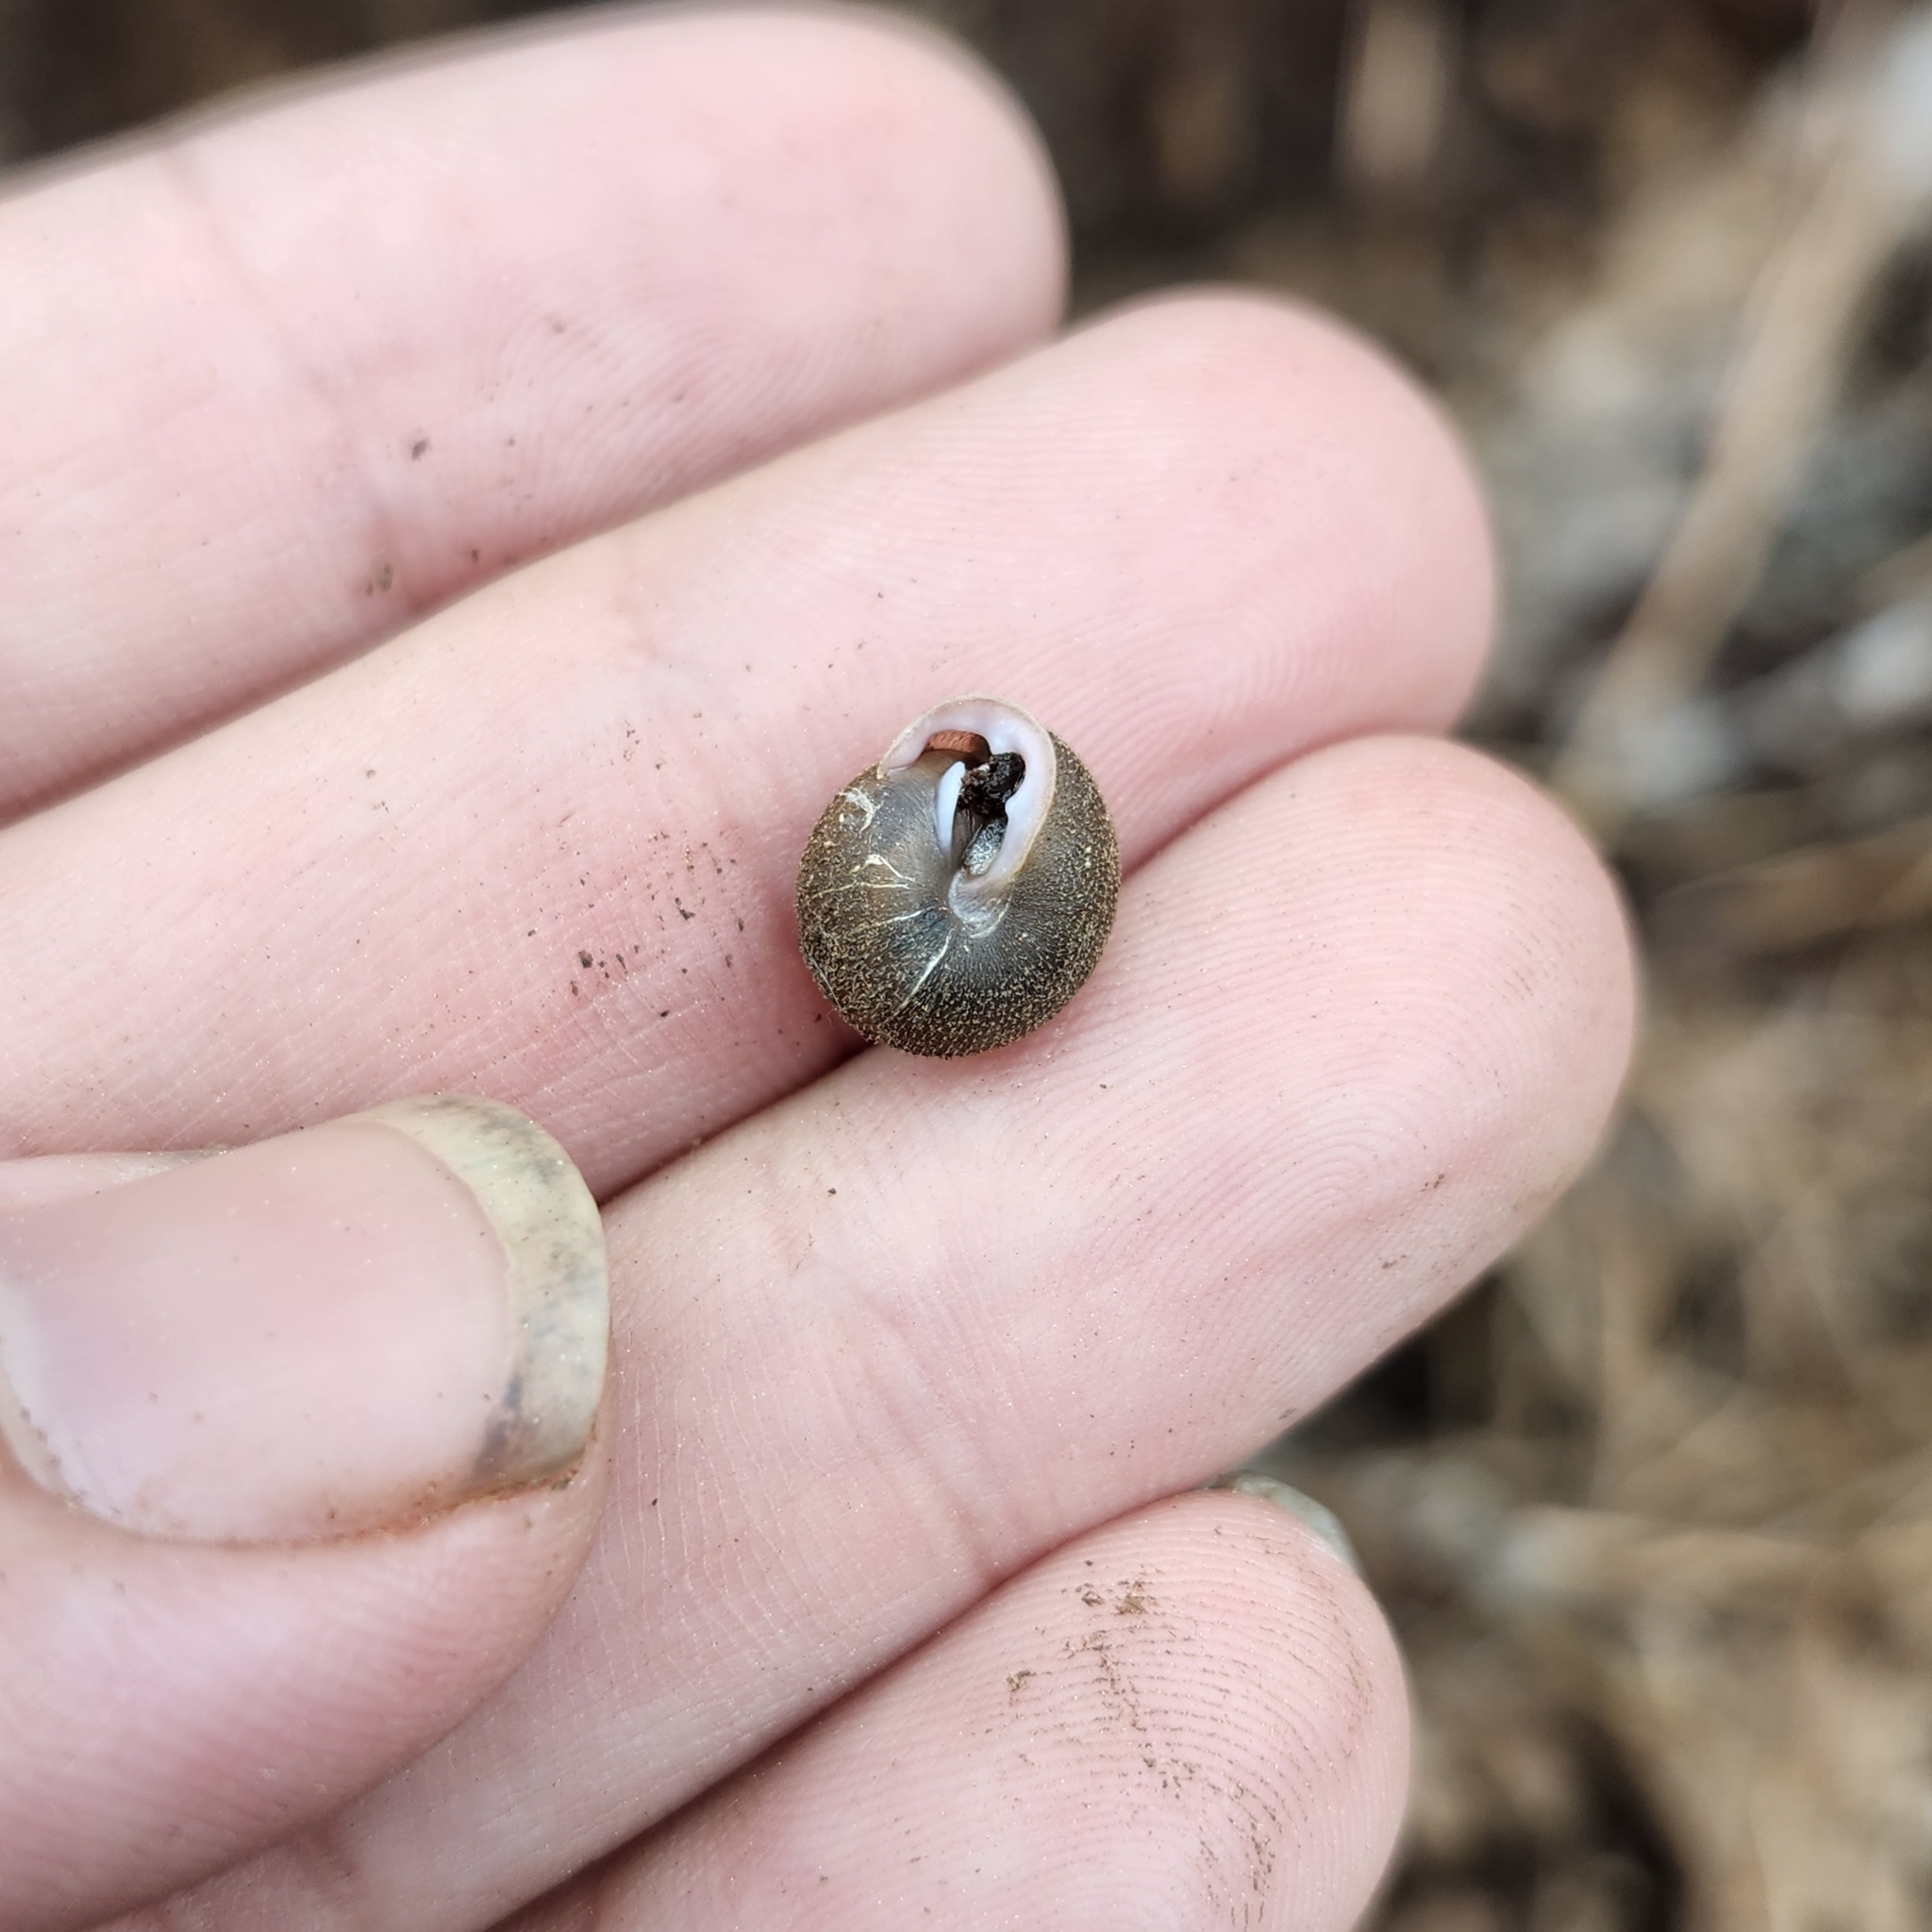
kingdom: Animalia
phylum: Mollusca
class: Gastropoda
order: Stylommatophora
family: Polygyridae
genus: Inflectarius
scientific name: Inflectarius inflectus
